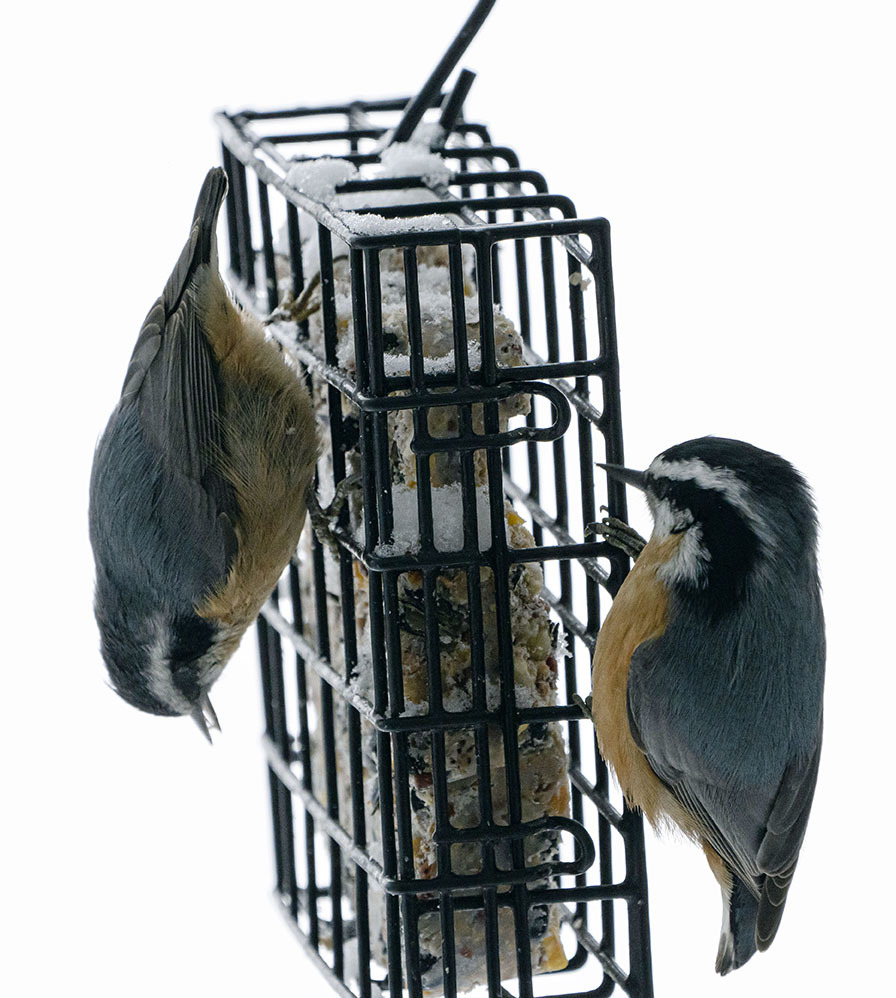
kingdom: Animalia
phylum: Chordata
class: Aves
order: Passeriformes
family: Sittidae
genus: Sitta
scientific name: Sitta canadensis
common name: Red-breasted nuthatch
